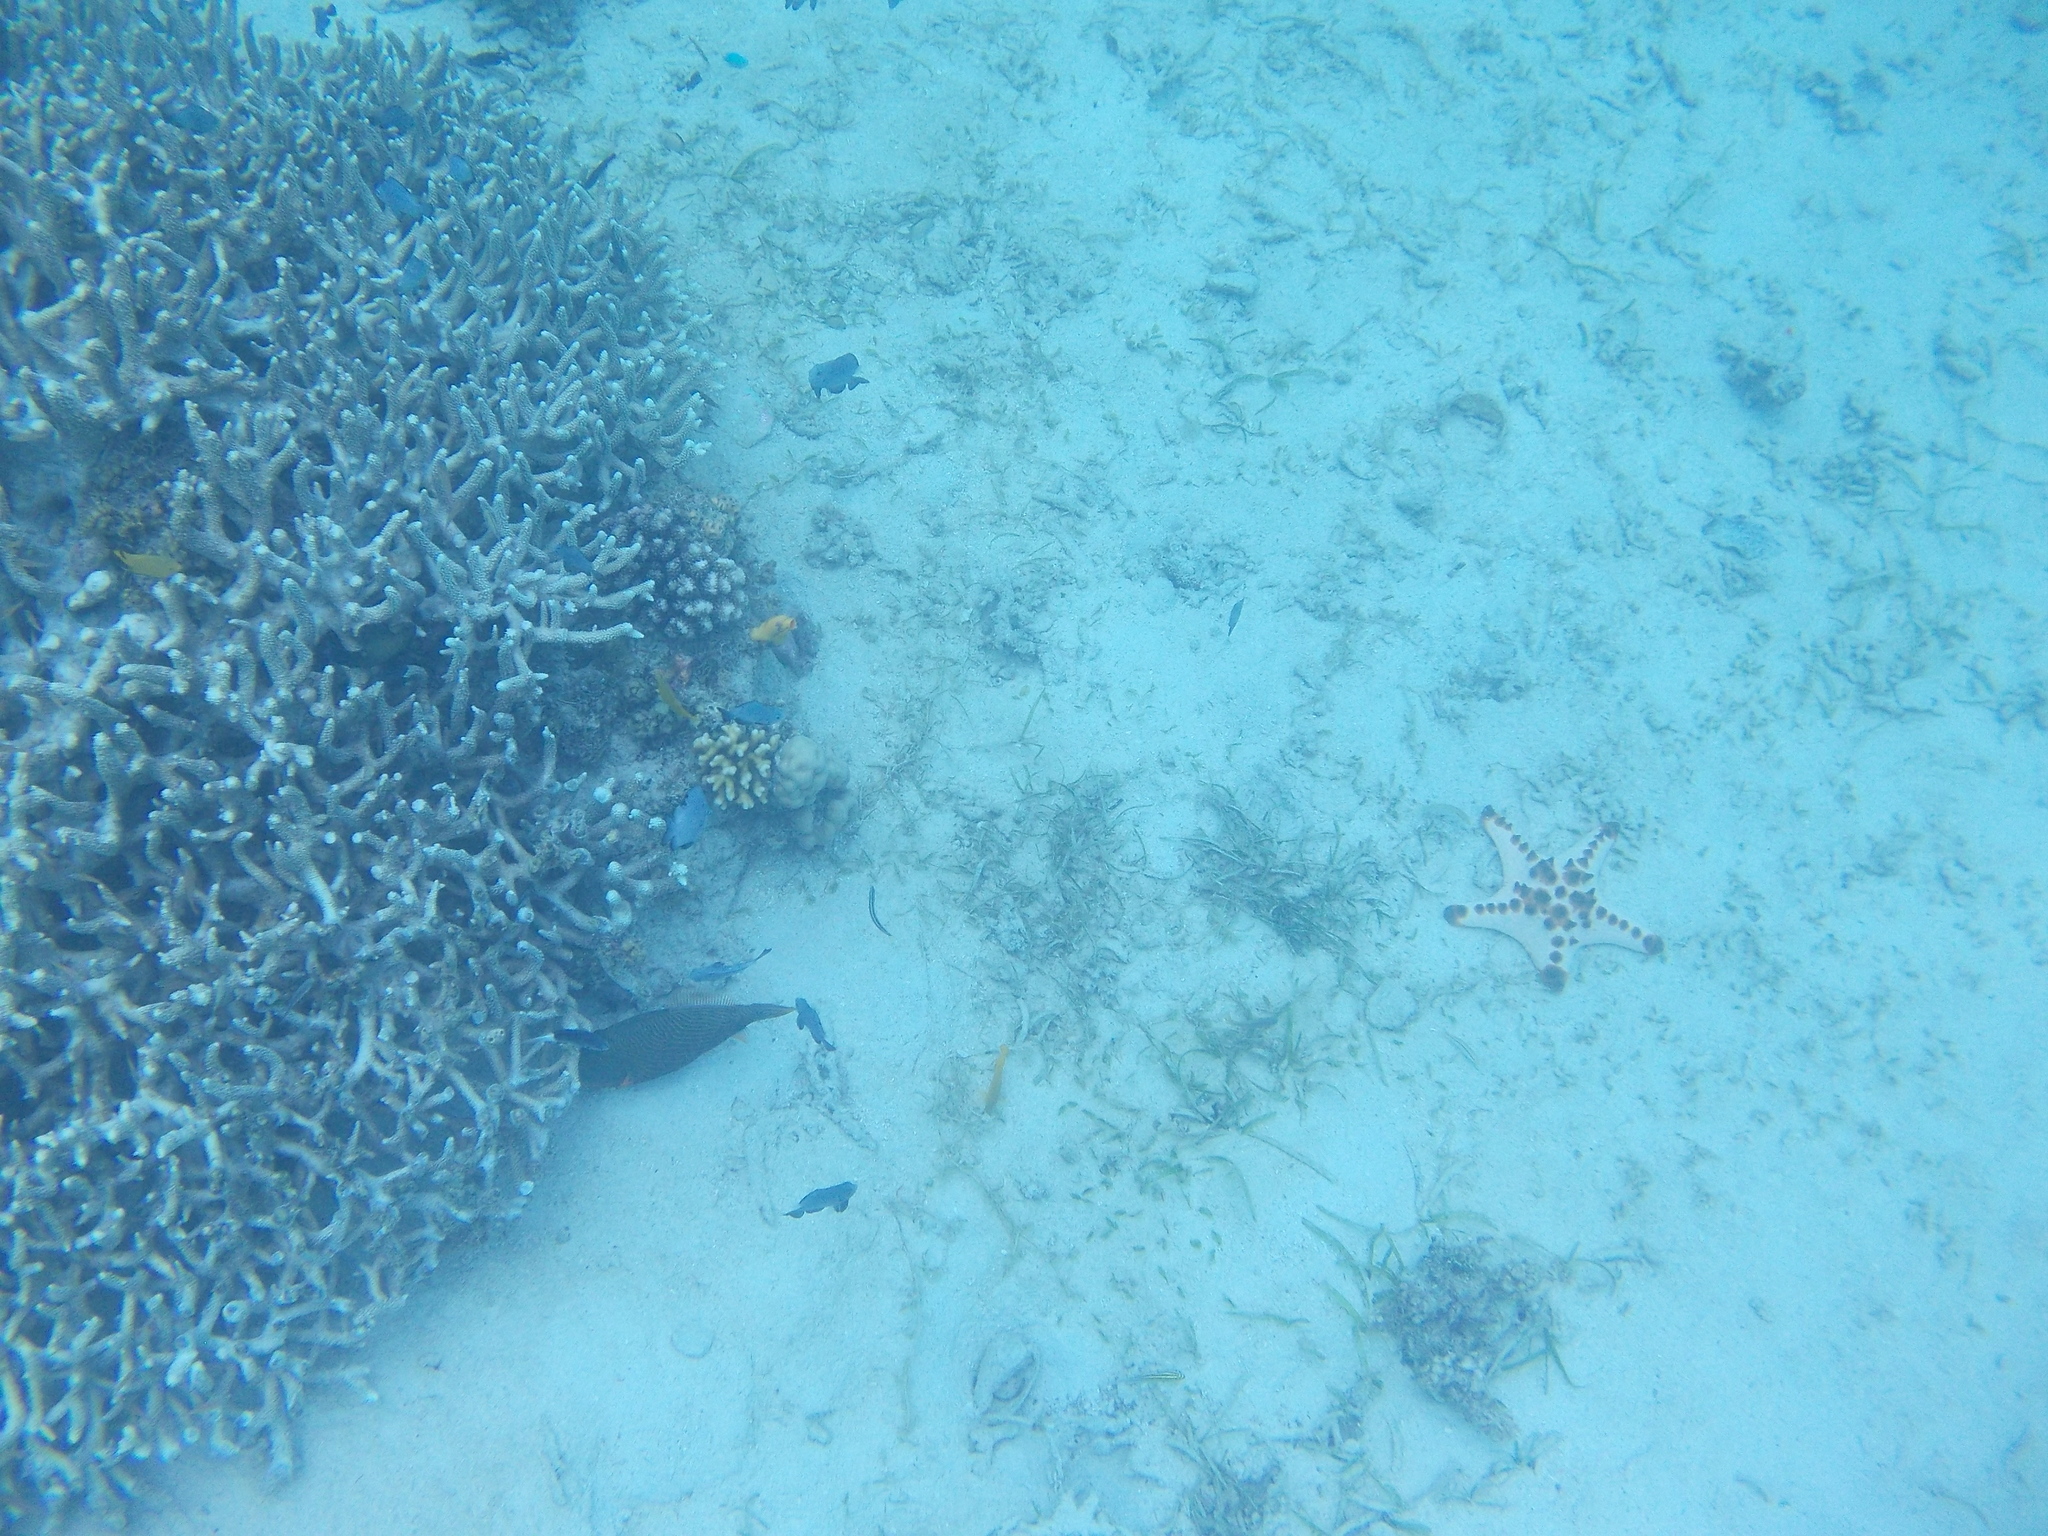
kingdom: Animalia
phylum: Echinodermata
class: Asteroidea
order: Valvatida
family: Oreasteridae
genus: Protoreaster
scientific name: Protoreaster nodosus
